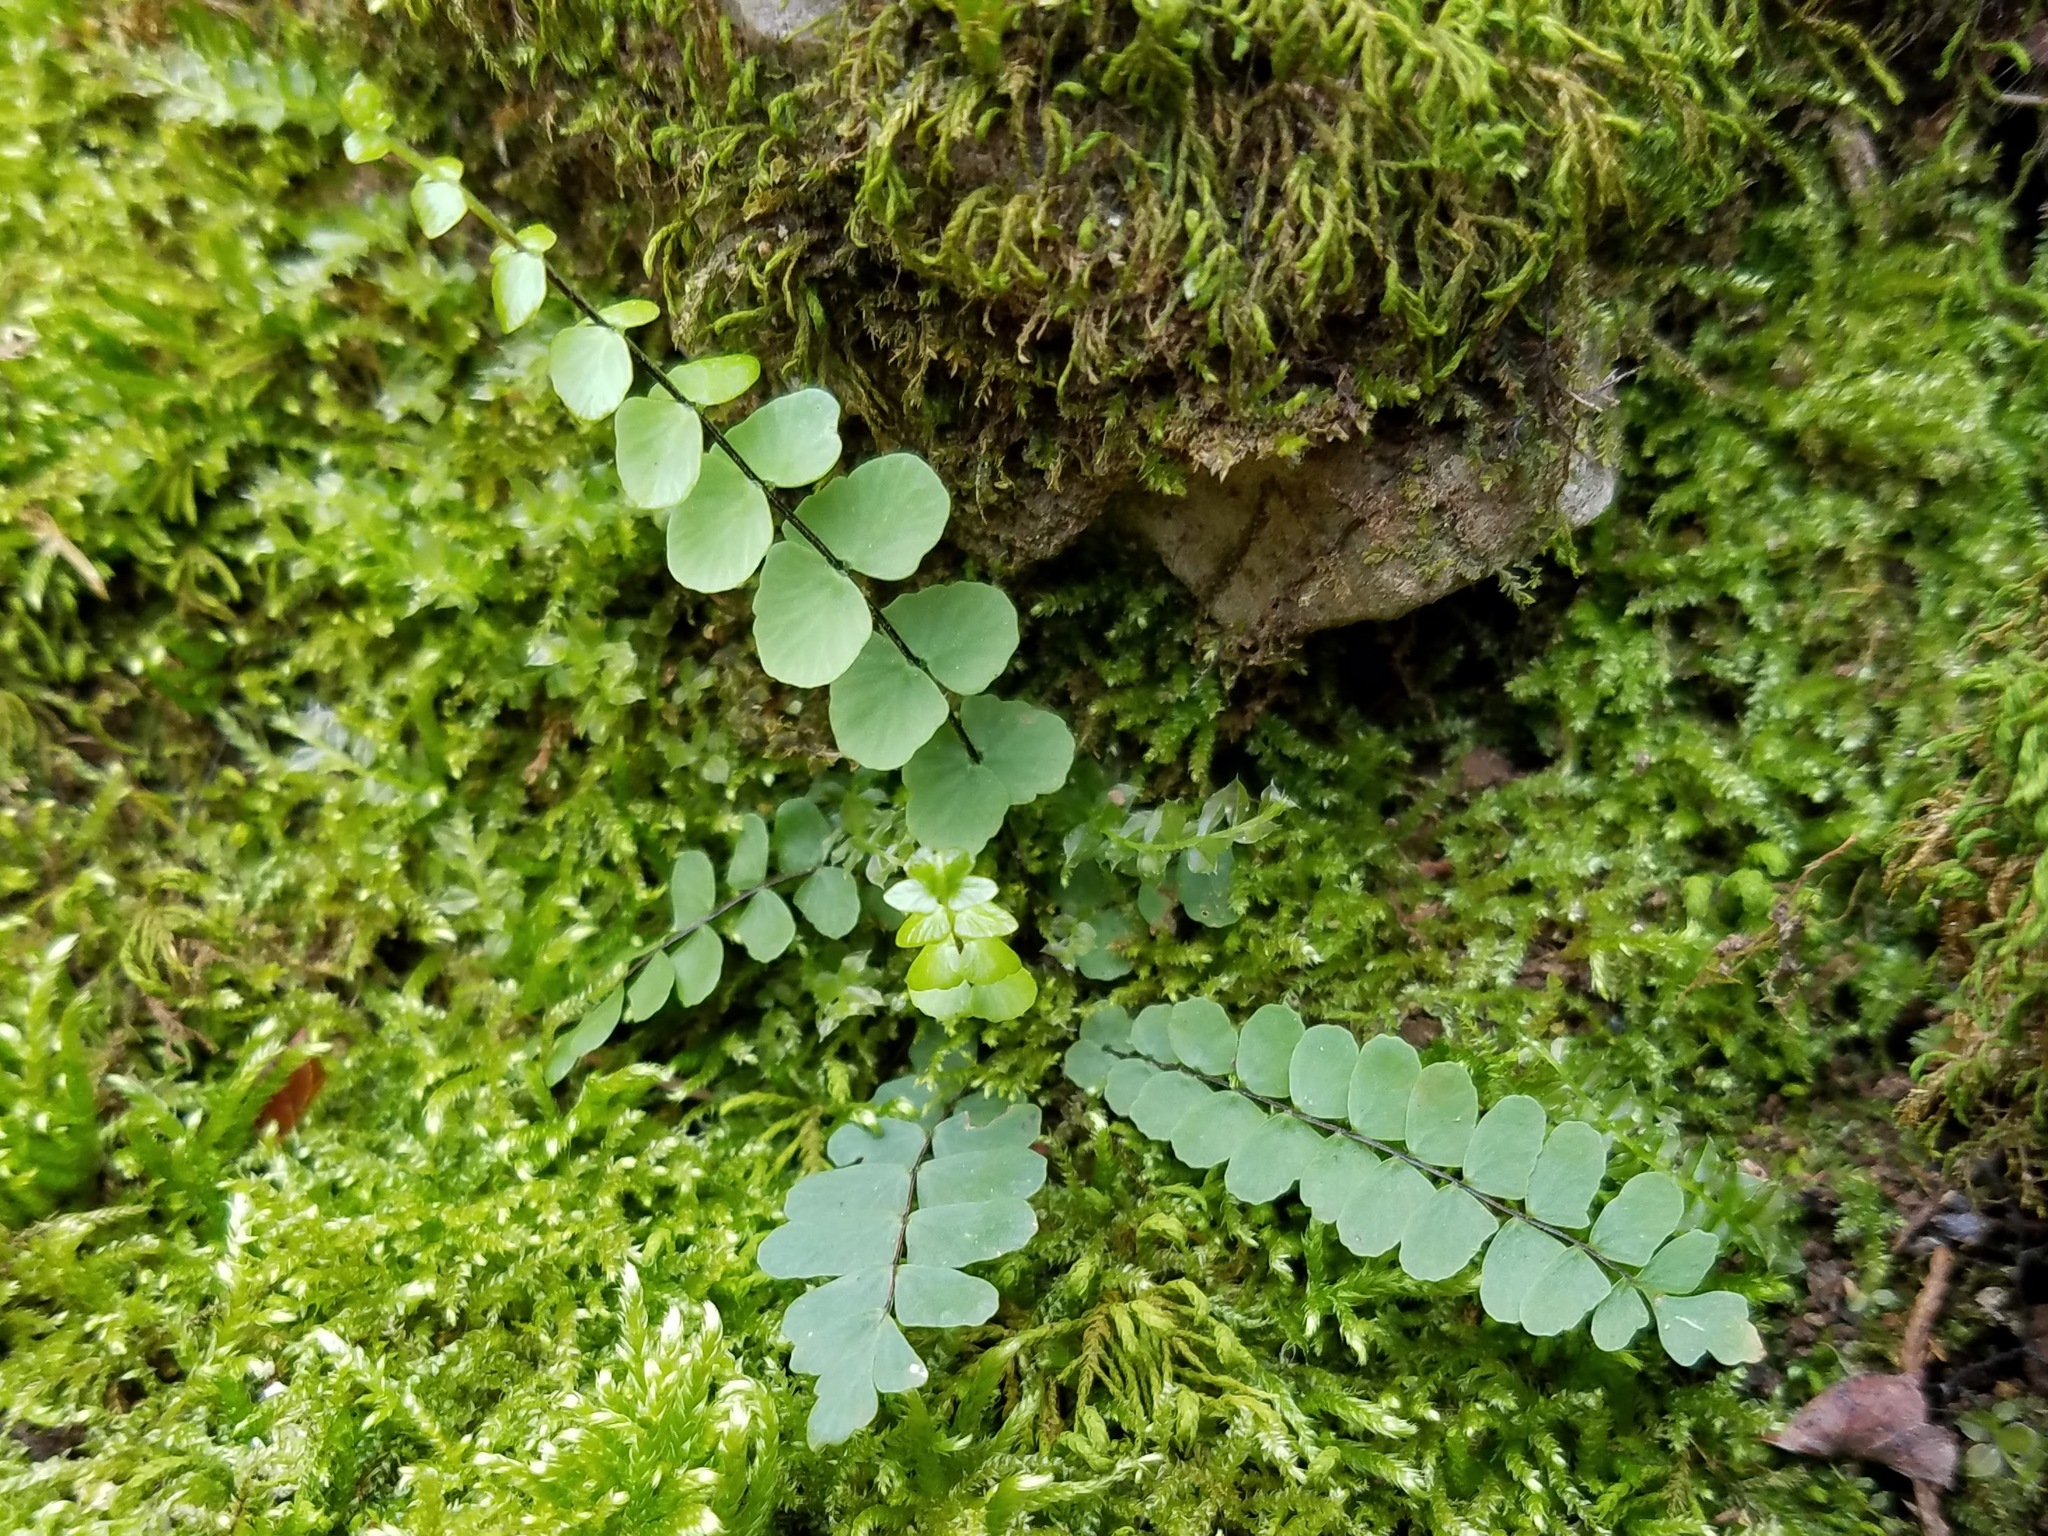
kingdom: Plantae
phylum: Tracheophyta
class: Polypodiopsida
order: Polypodiales
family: Aspleniaceae
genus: Asplenium
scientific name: Asplenium resiliens
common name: Blackstem spleenwort
